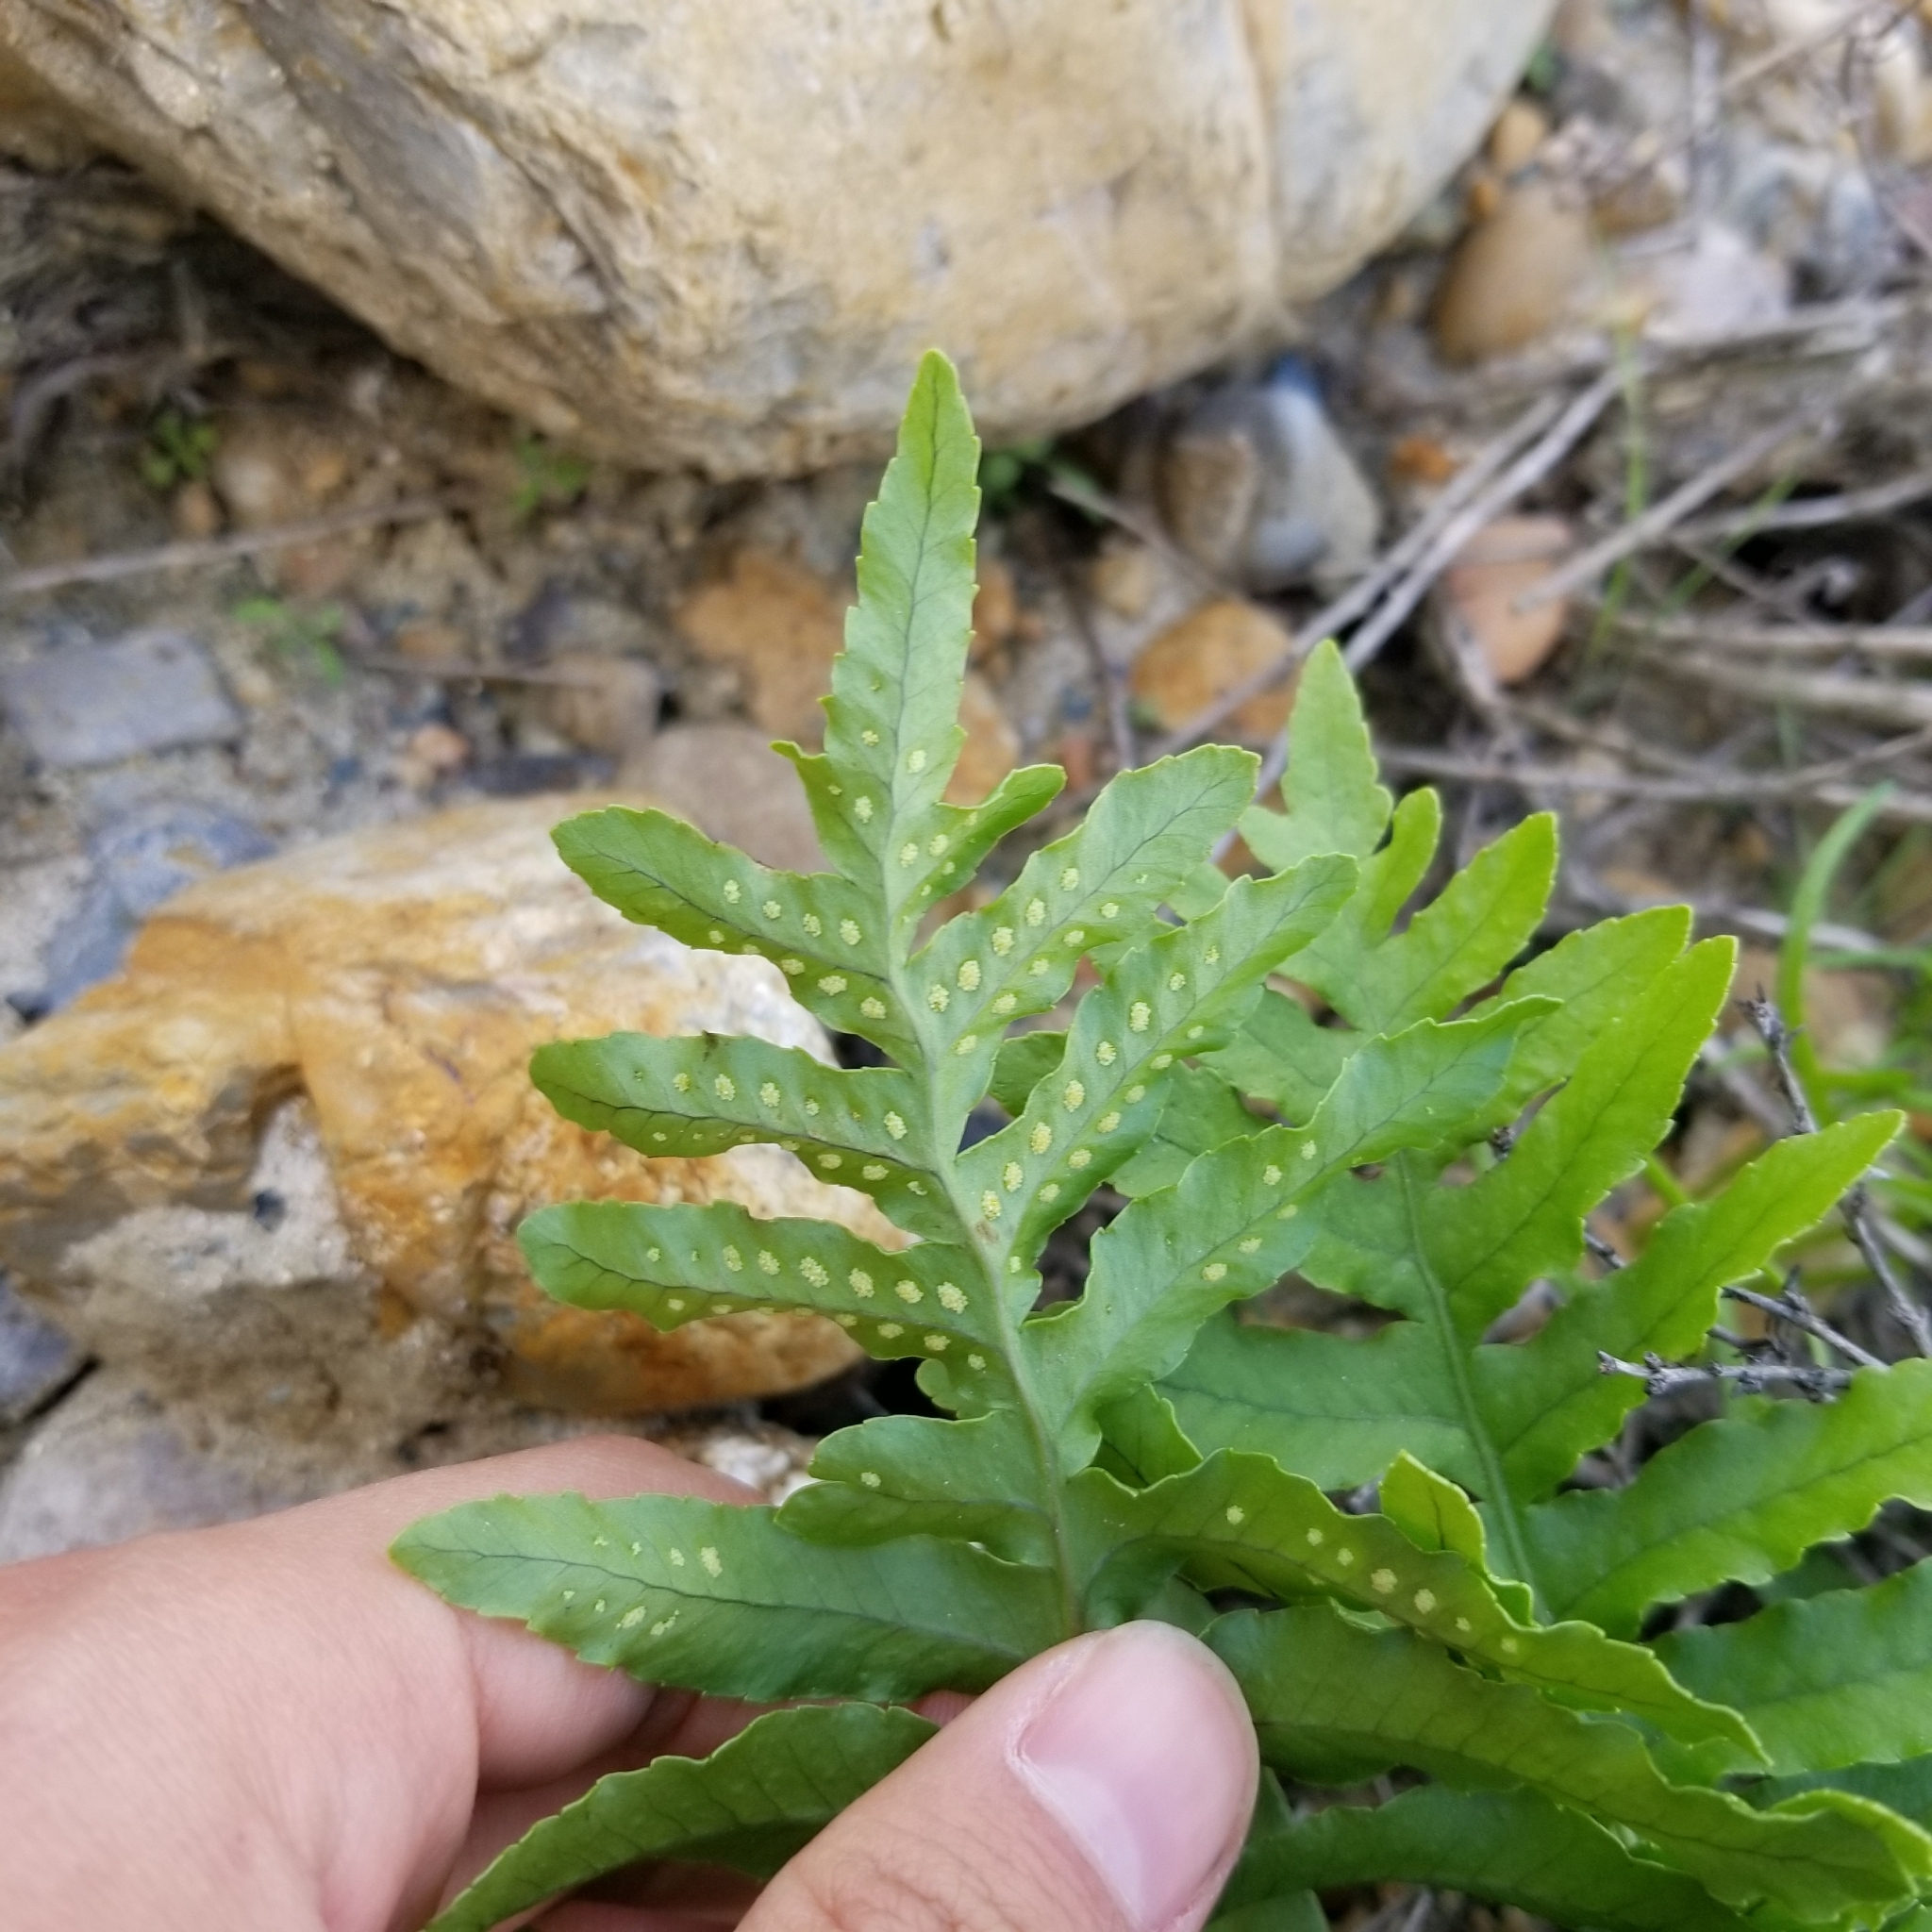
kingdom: Plantae
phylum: Tracheophyta
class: Polypodiopsida
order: Polypodiales
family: Polypodiaceae
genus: Polypodium
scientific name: Polypodium californicum
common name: California polypody
